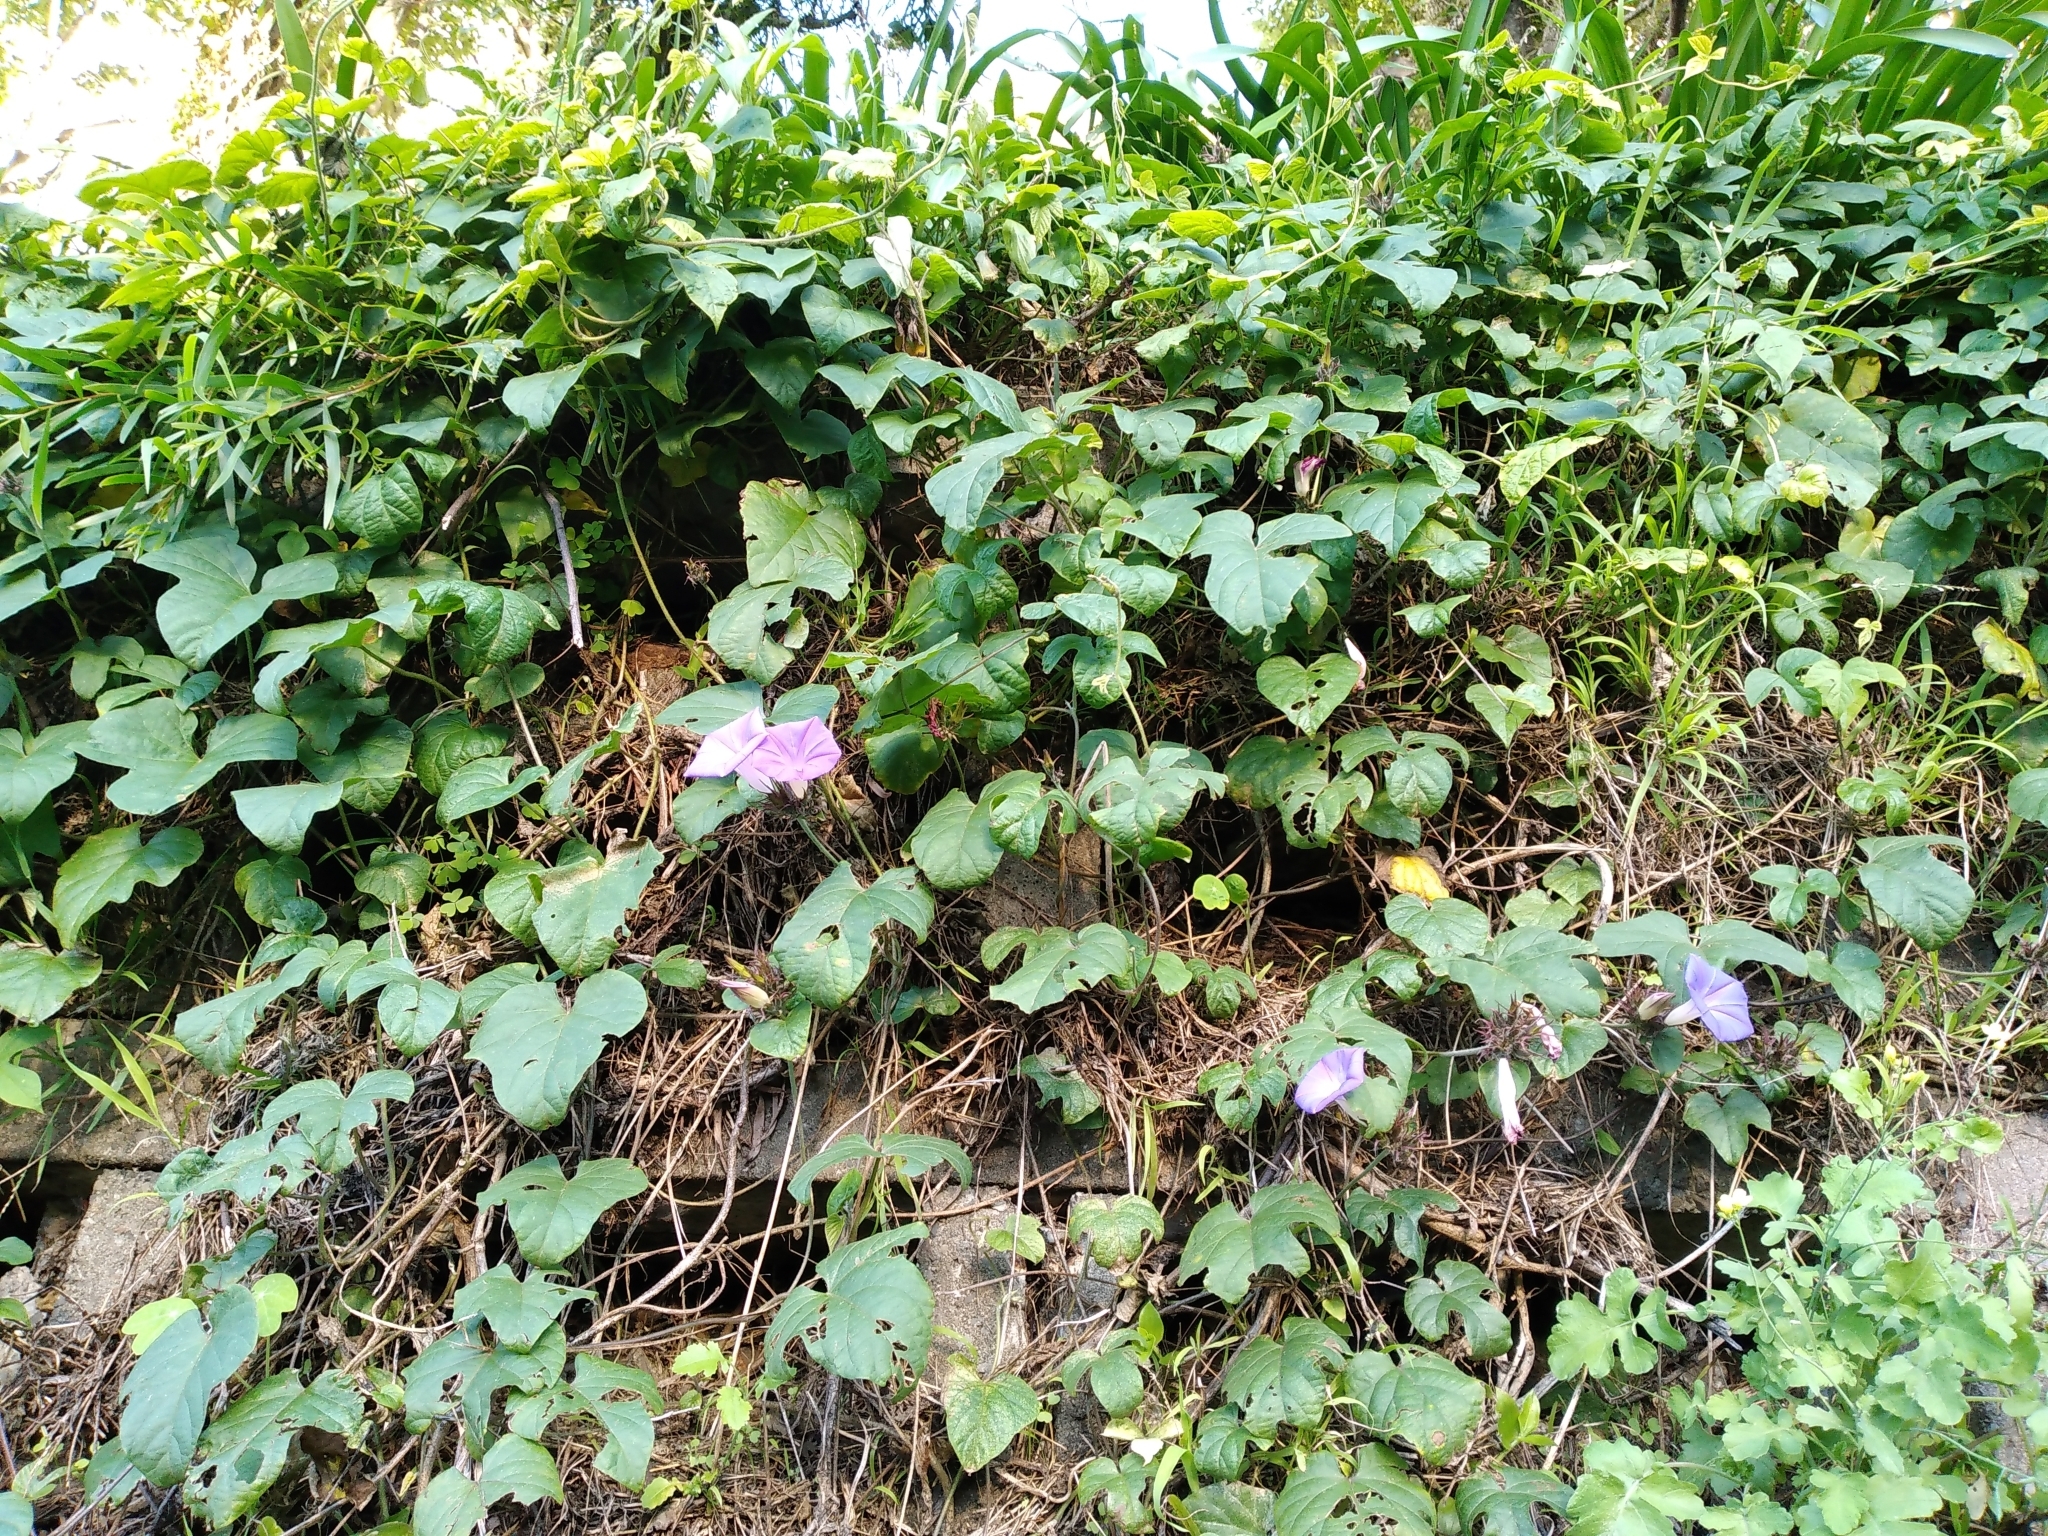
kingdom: Plantae
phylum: Tracheophyta
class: Magnoliopsida
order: Solanales
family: Convolvulaceae
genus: Ipomoea
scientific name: Ipomoea indica
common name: Blue dawnflower
